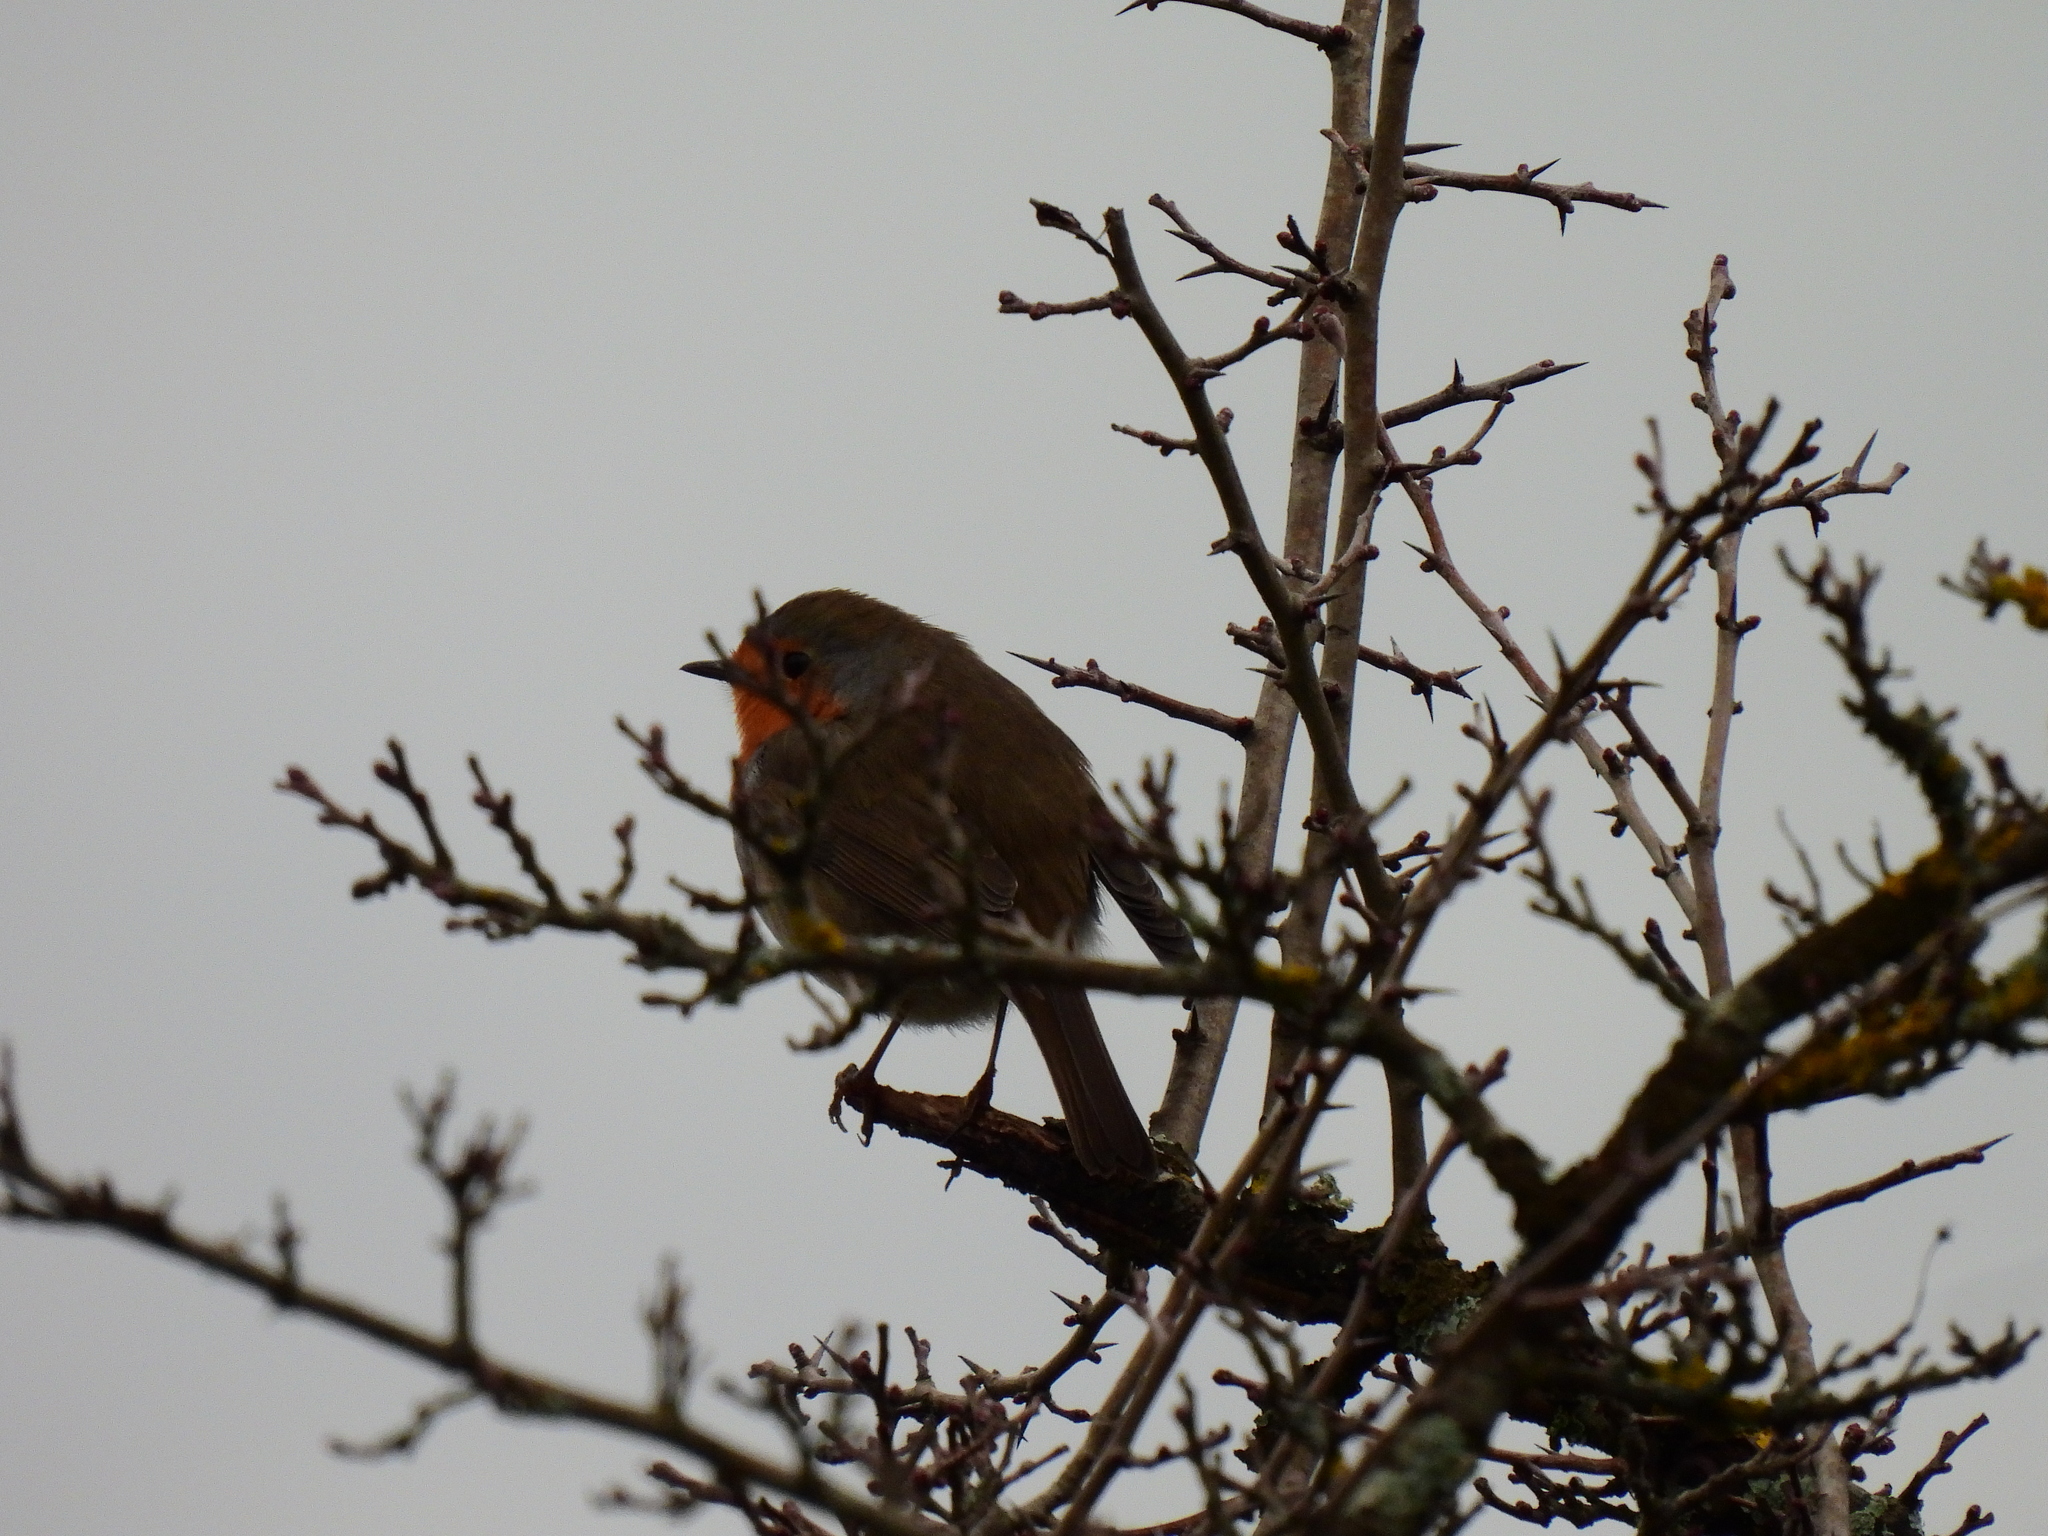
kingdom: Animalia
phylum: Chordata
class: Aves
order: Passeriformes
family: Muscicapidae
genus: Erithacus
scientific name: Erithacus rubecula
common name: European robin
